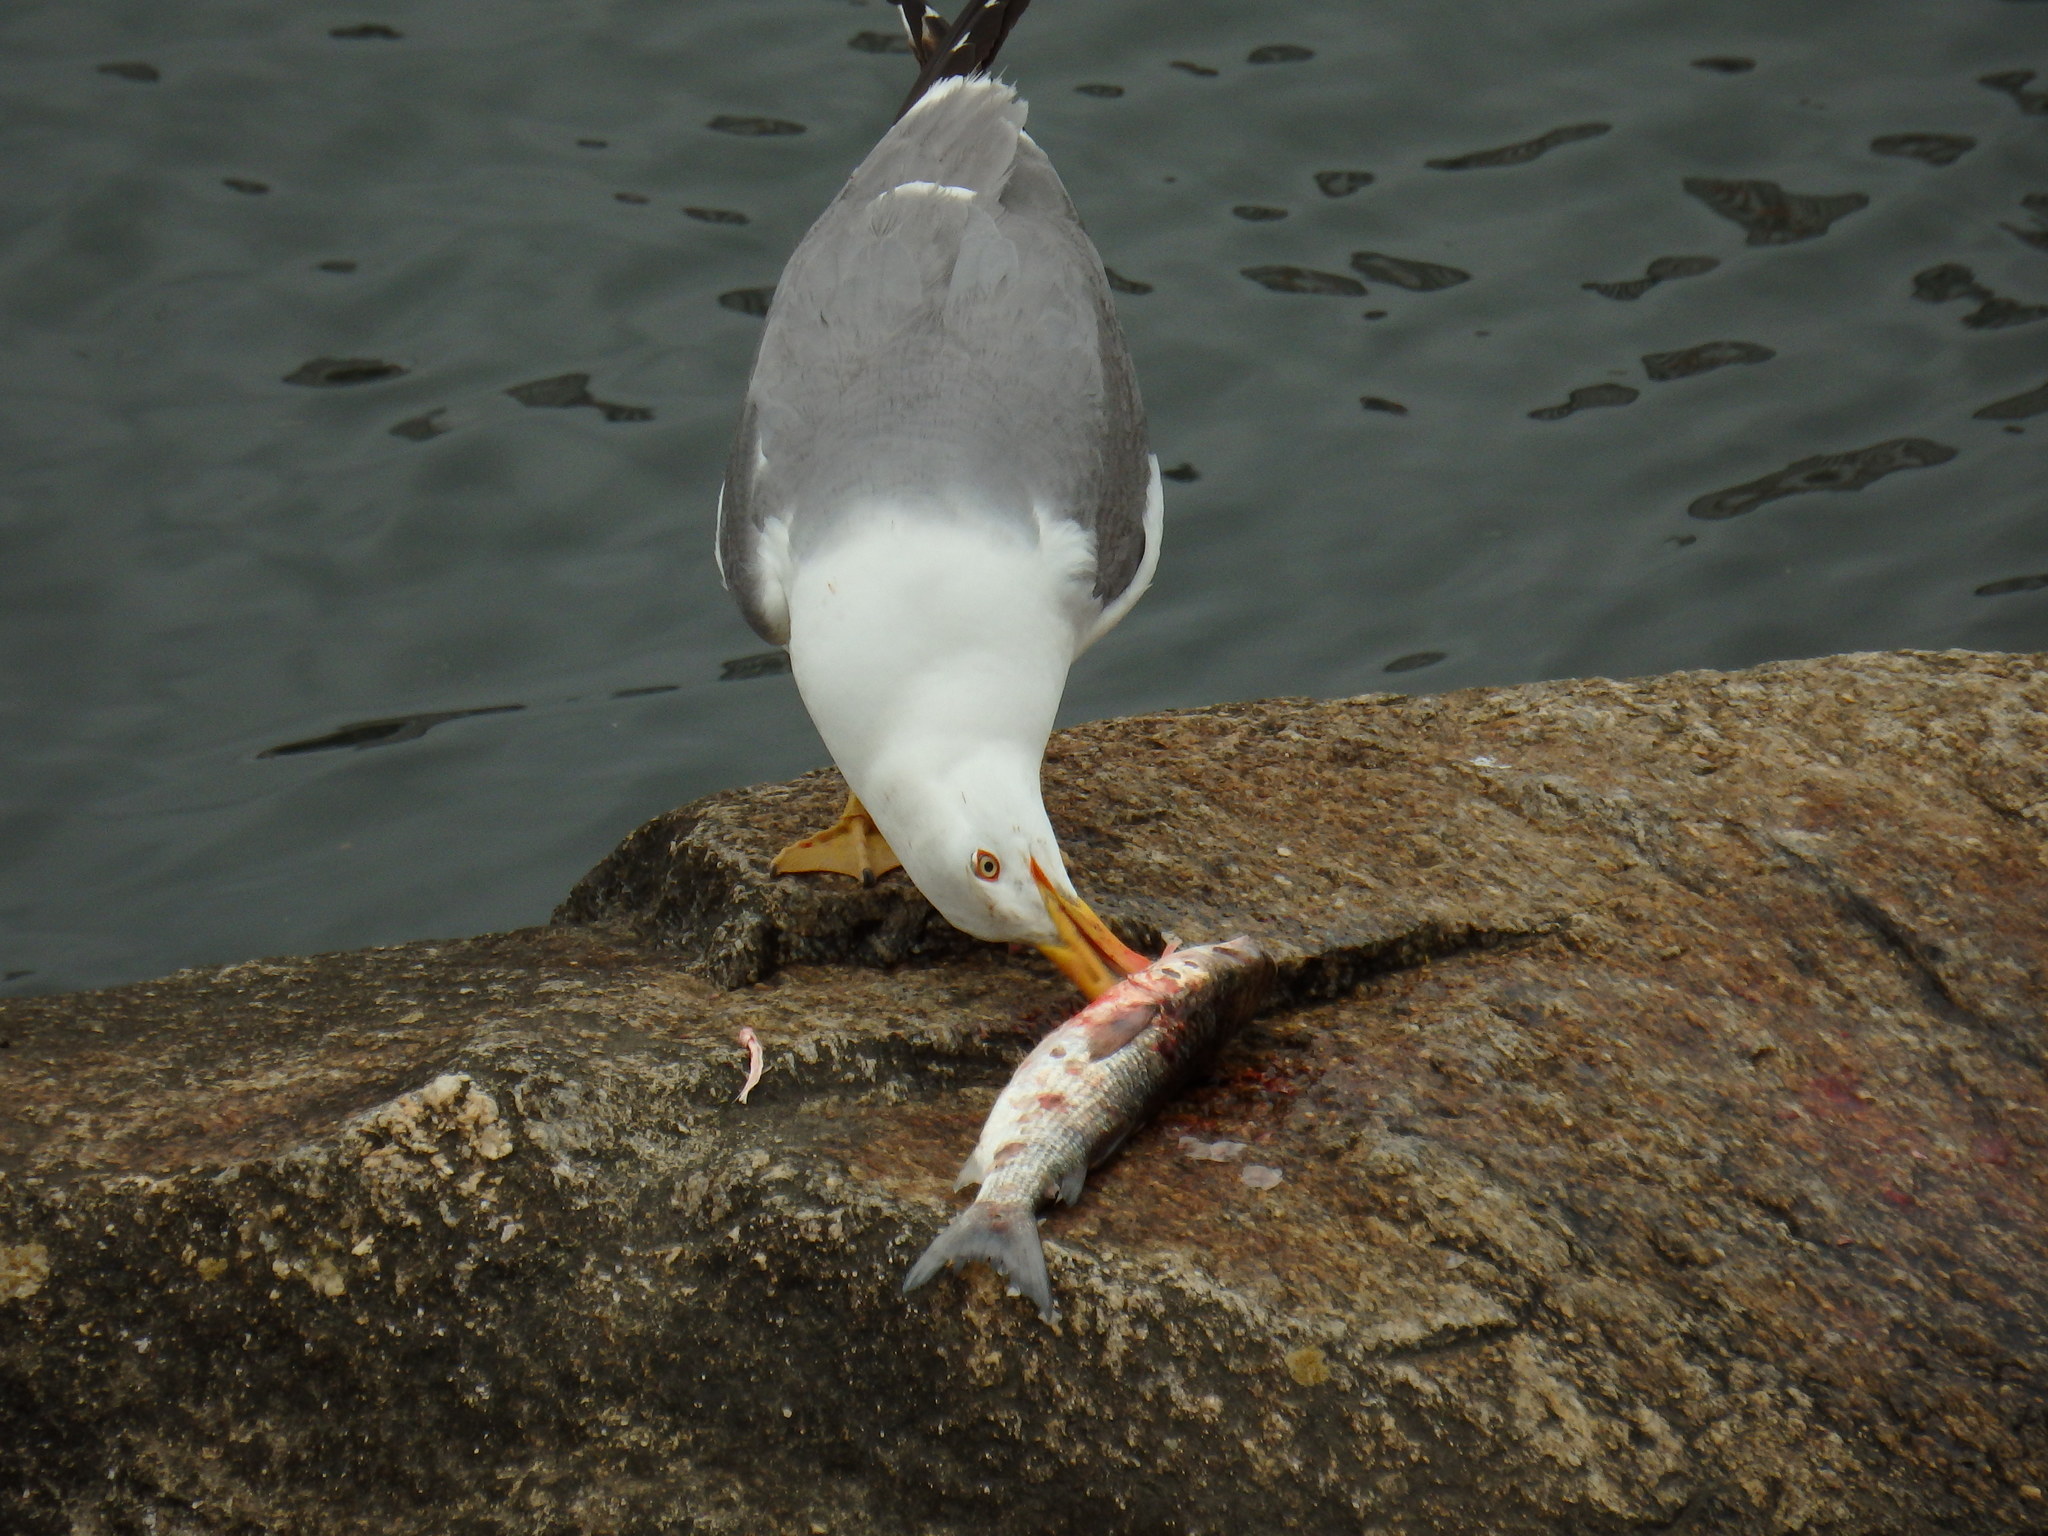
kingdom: Animalia
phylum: Chordata
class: Aves
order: Charadriiformes
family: Laridae
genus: Larus
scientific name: Larus michahellis
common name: Yellow-legged gull
